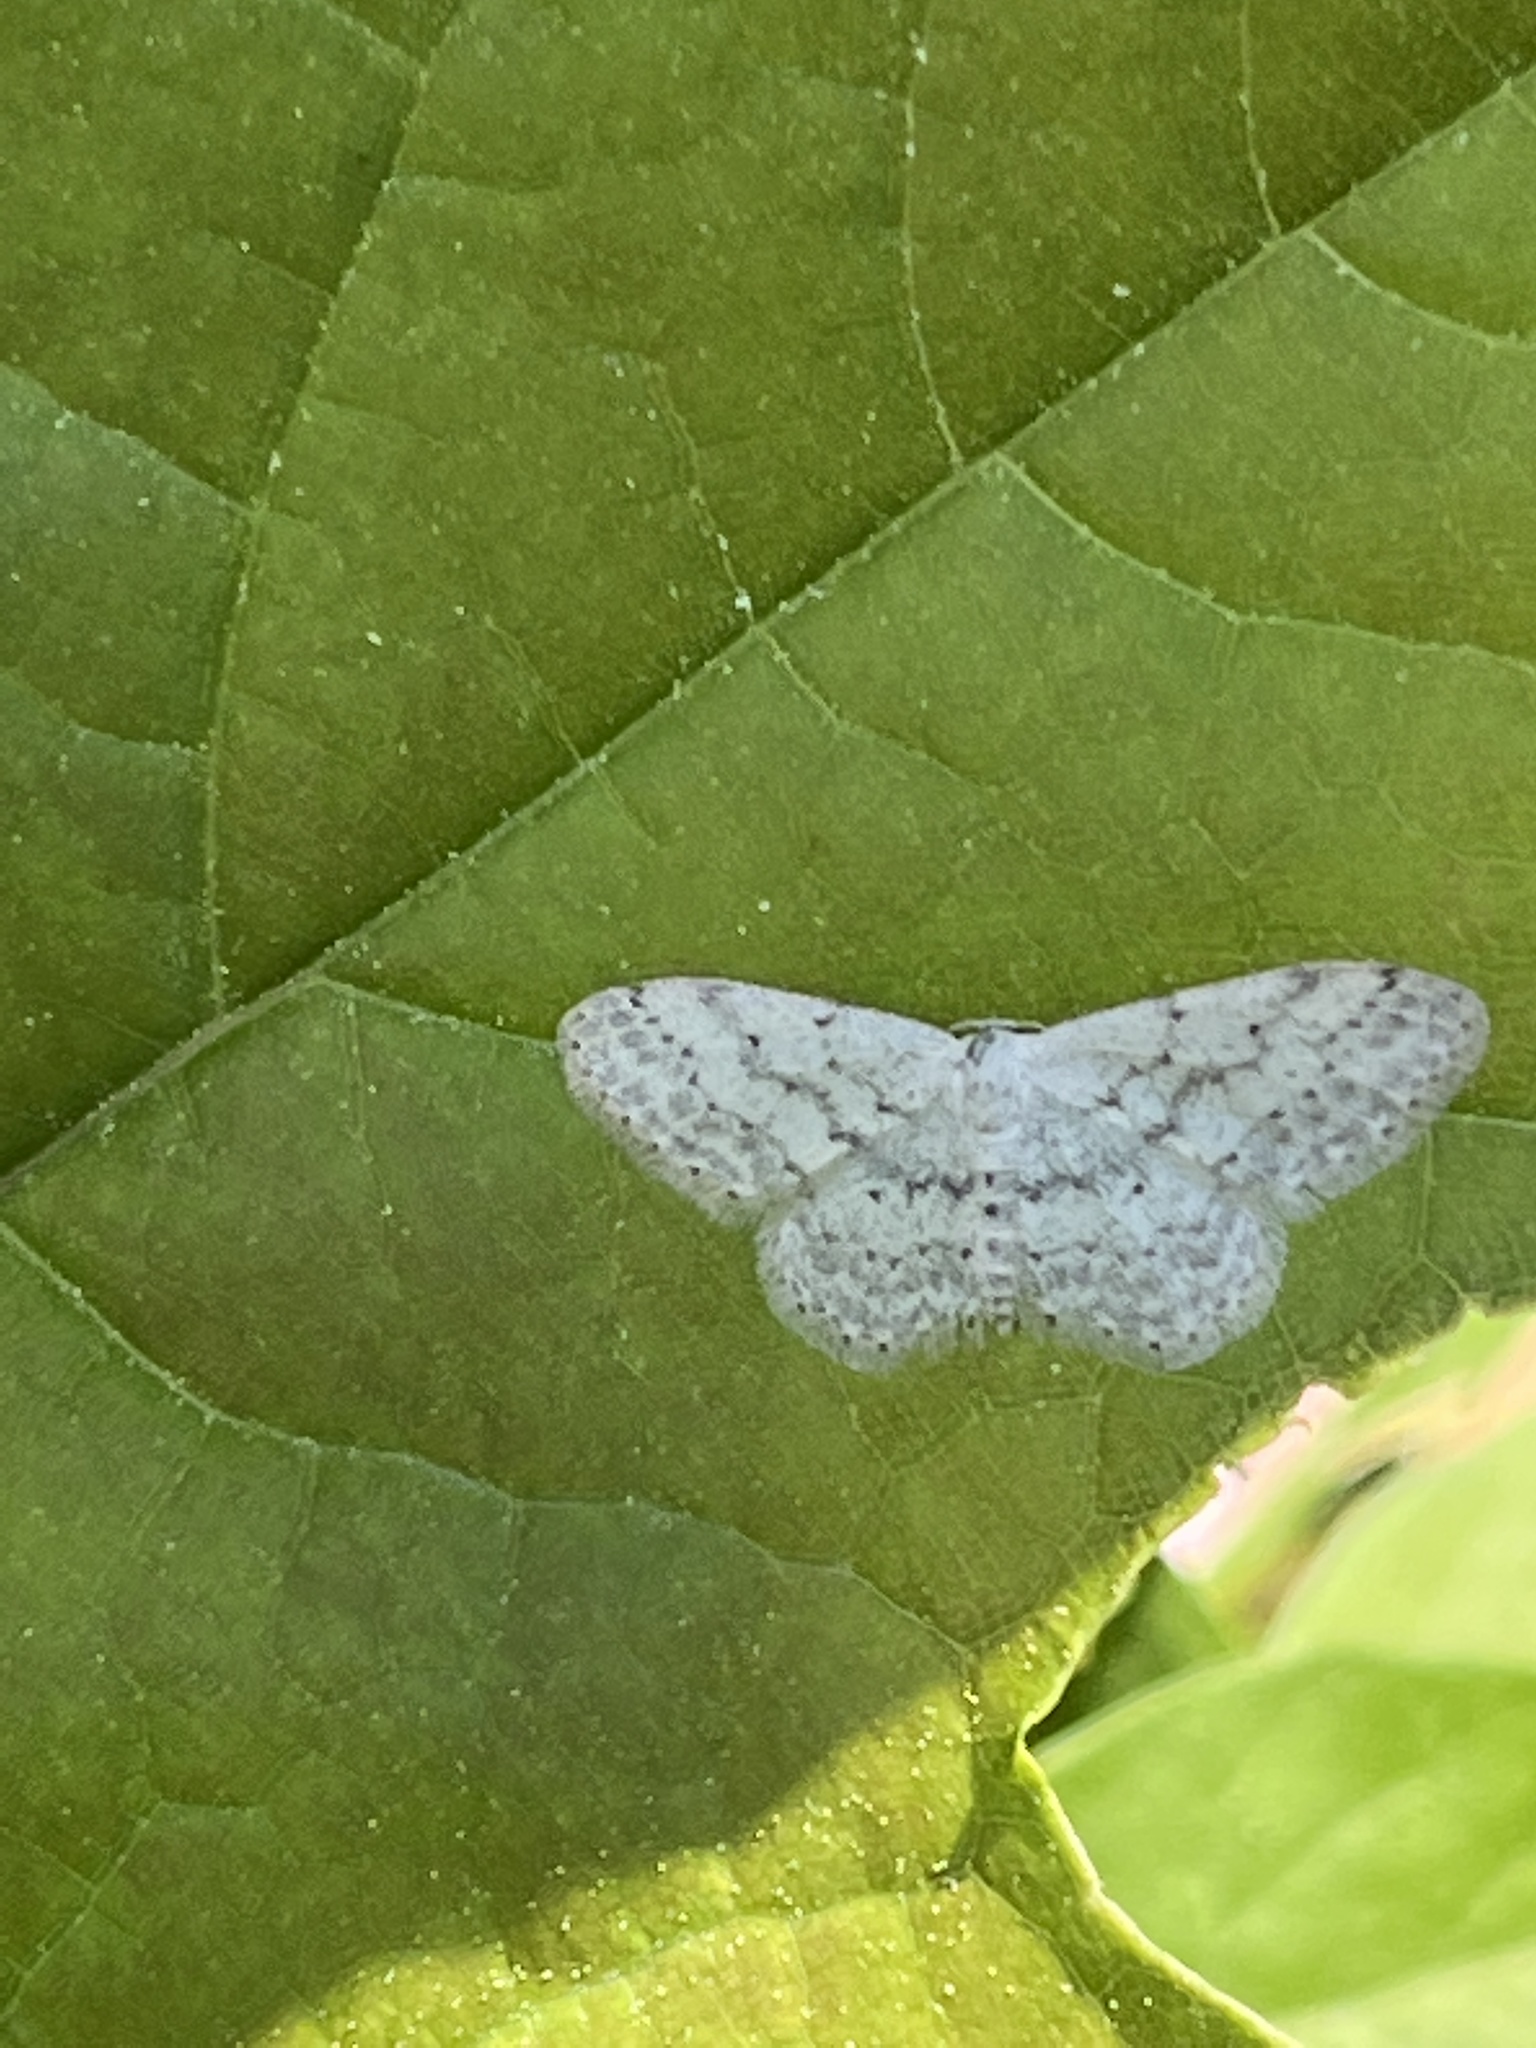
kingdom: Animalia
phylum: Arthropoda
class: Insecta
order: Lepidoptera
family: Geometridae
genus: Idaea
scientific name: Idaea seriata
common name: Small dusty wave
